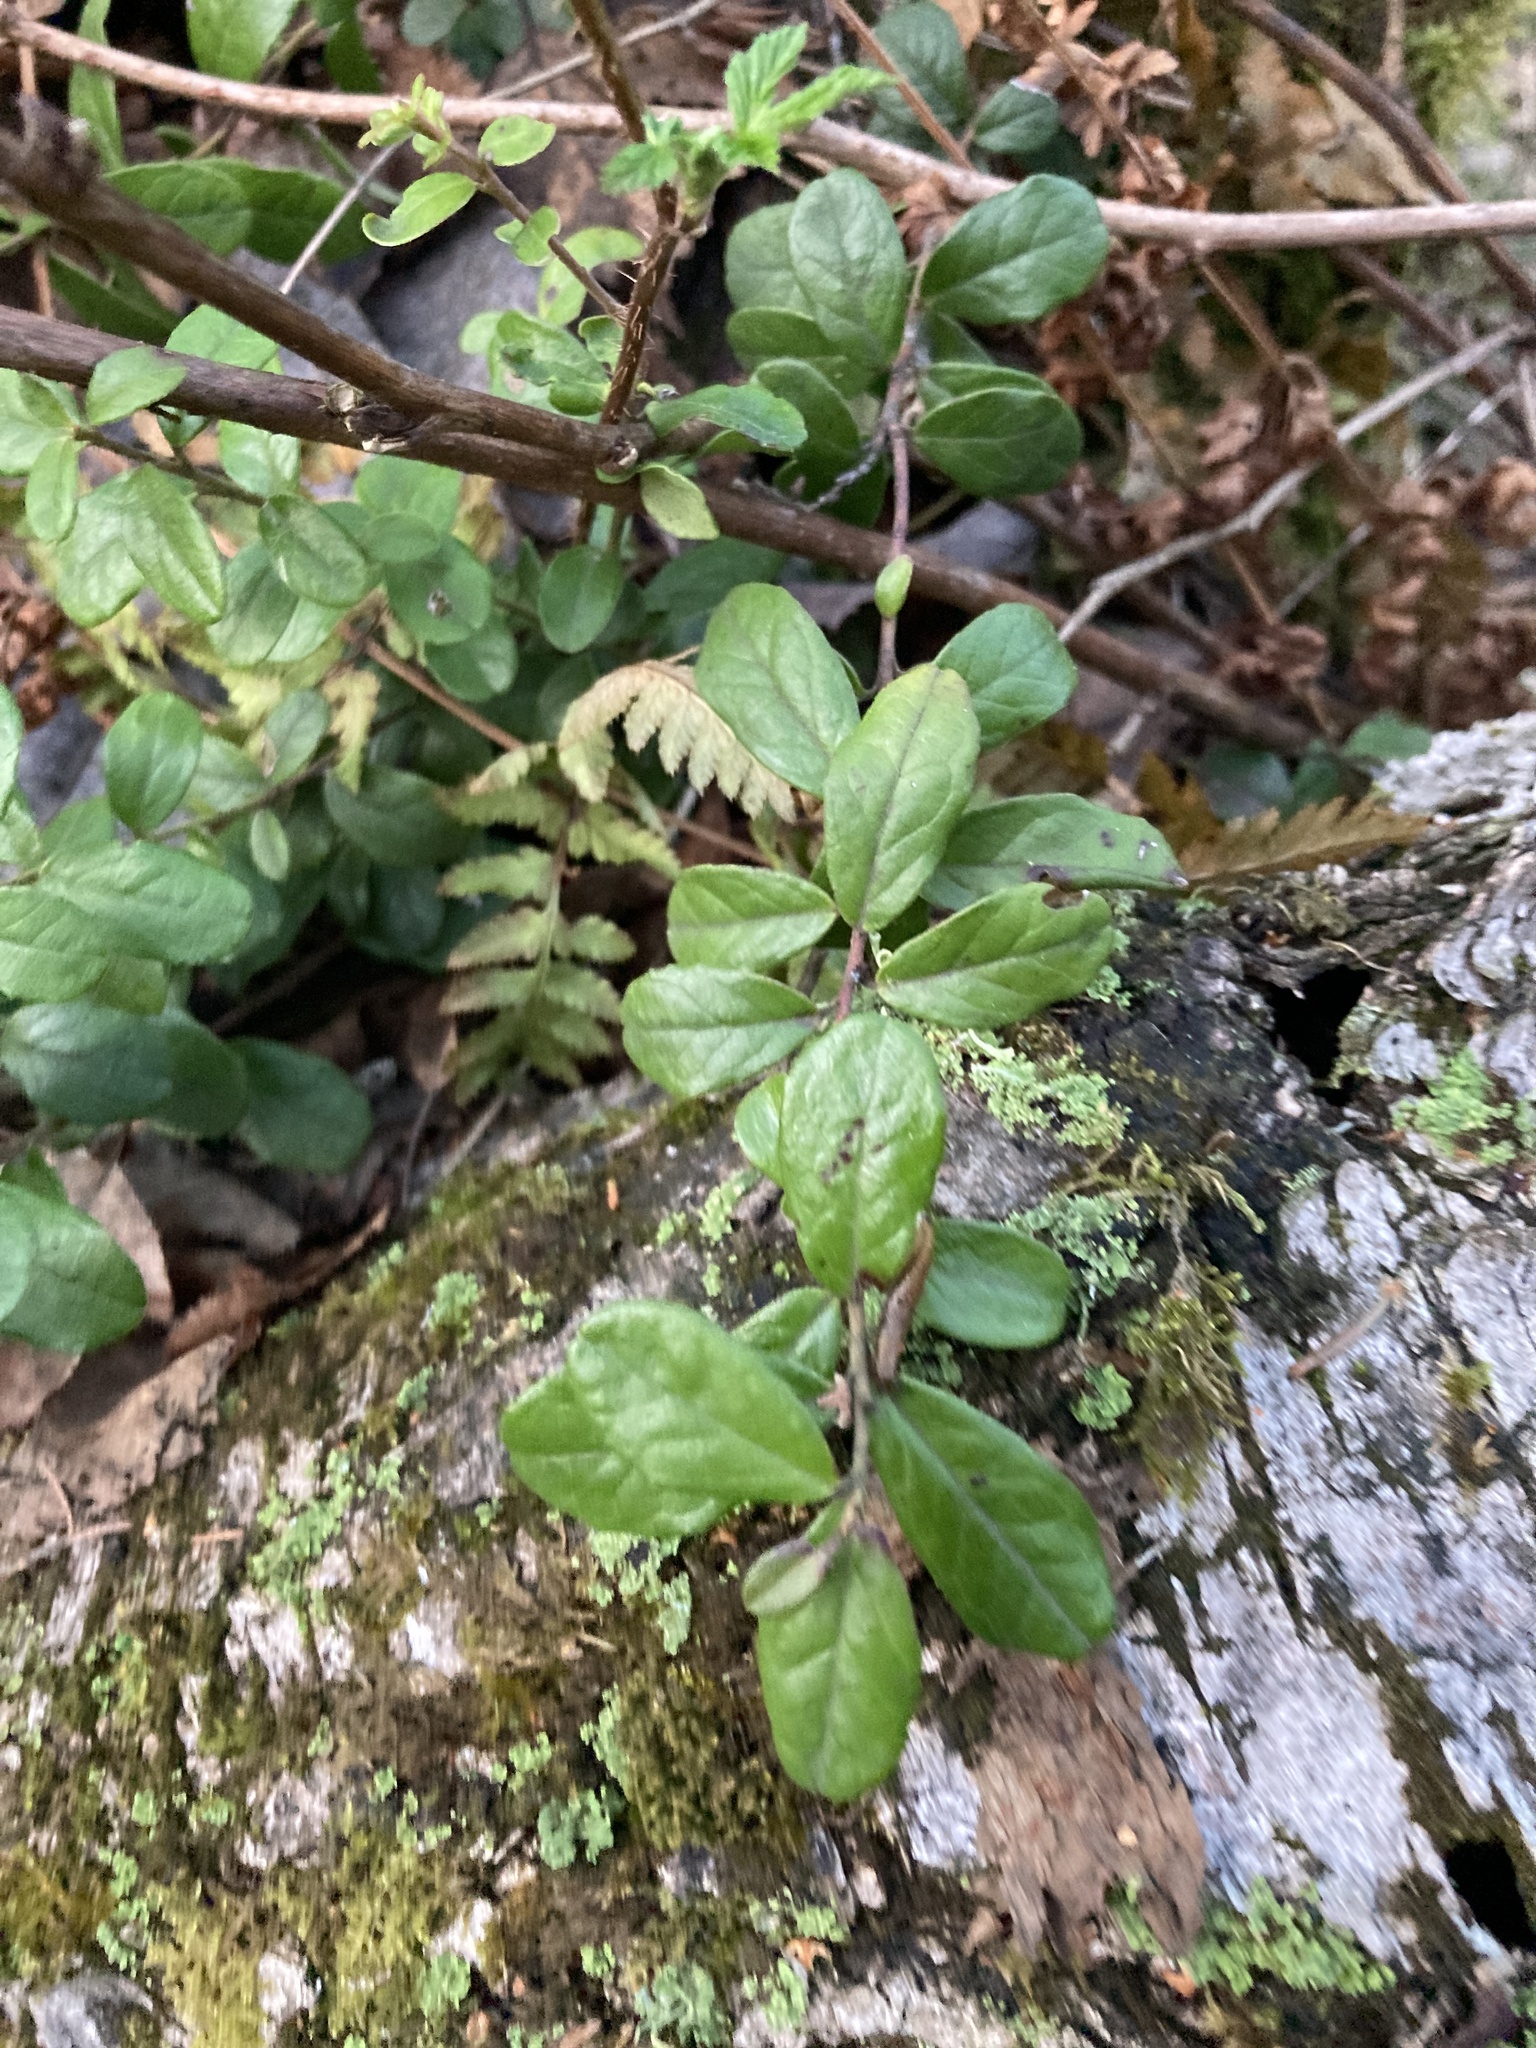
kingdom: Plantae
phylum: Tracheophyta
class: Magnoliopsida
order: Ericales
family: Ericaceae
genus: Vaccinium
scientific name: Vaccinium vitis-idaea
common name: Cowberry
